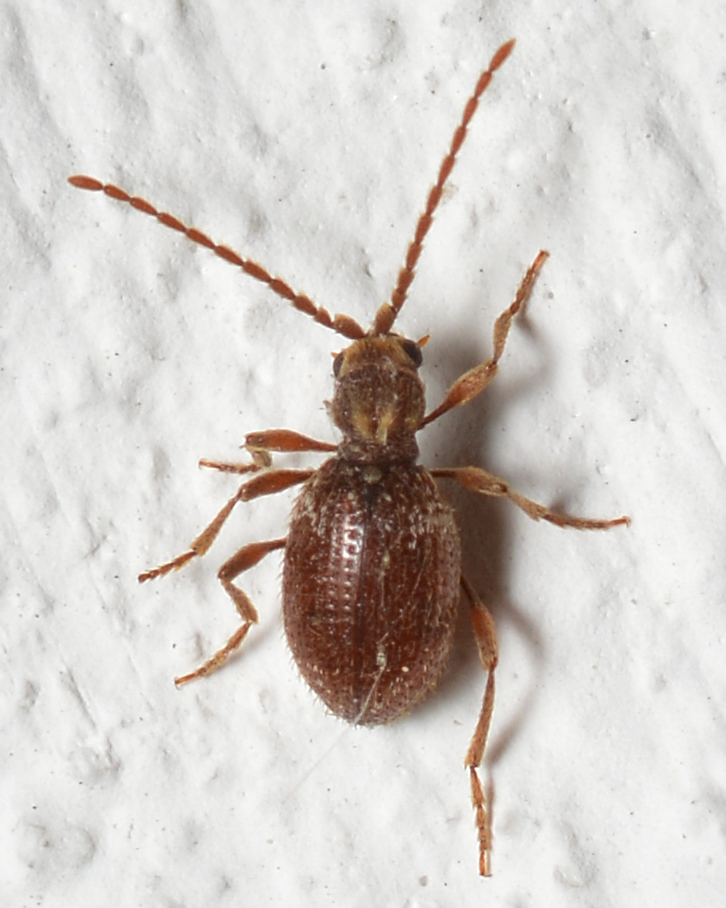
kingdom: Animalia
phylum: Arthropoda
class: Insecta
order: Coleoptera
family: Ptinidae
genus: Ptinus
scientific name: Ptinus fur
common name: White-marked spider beetle
